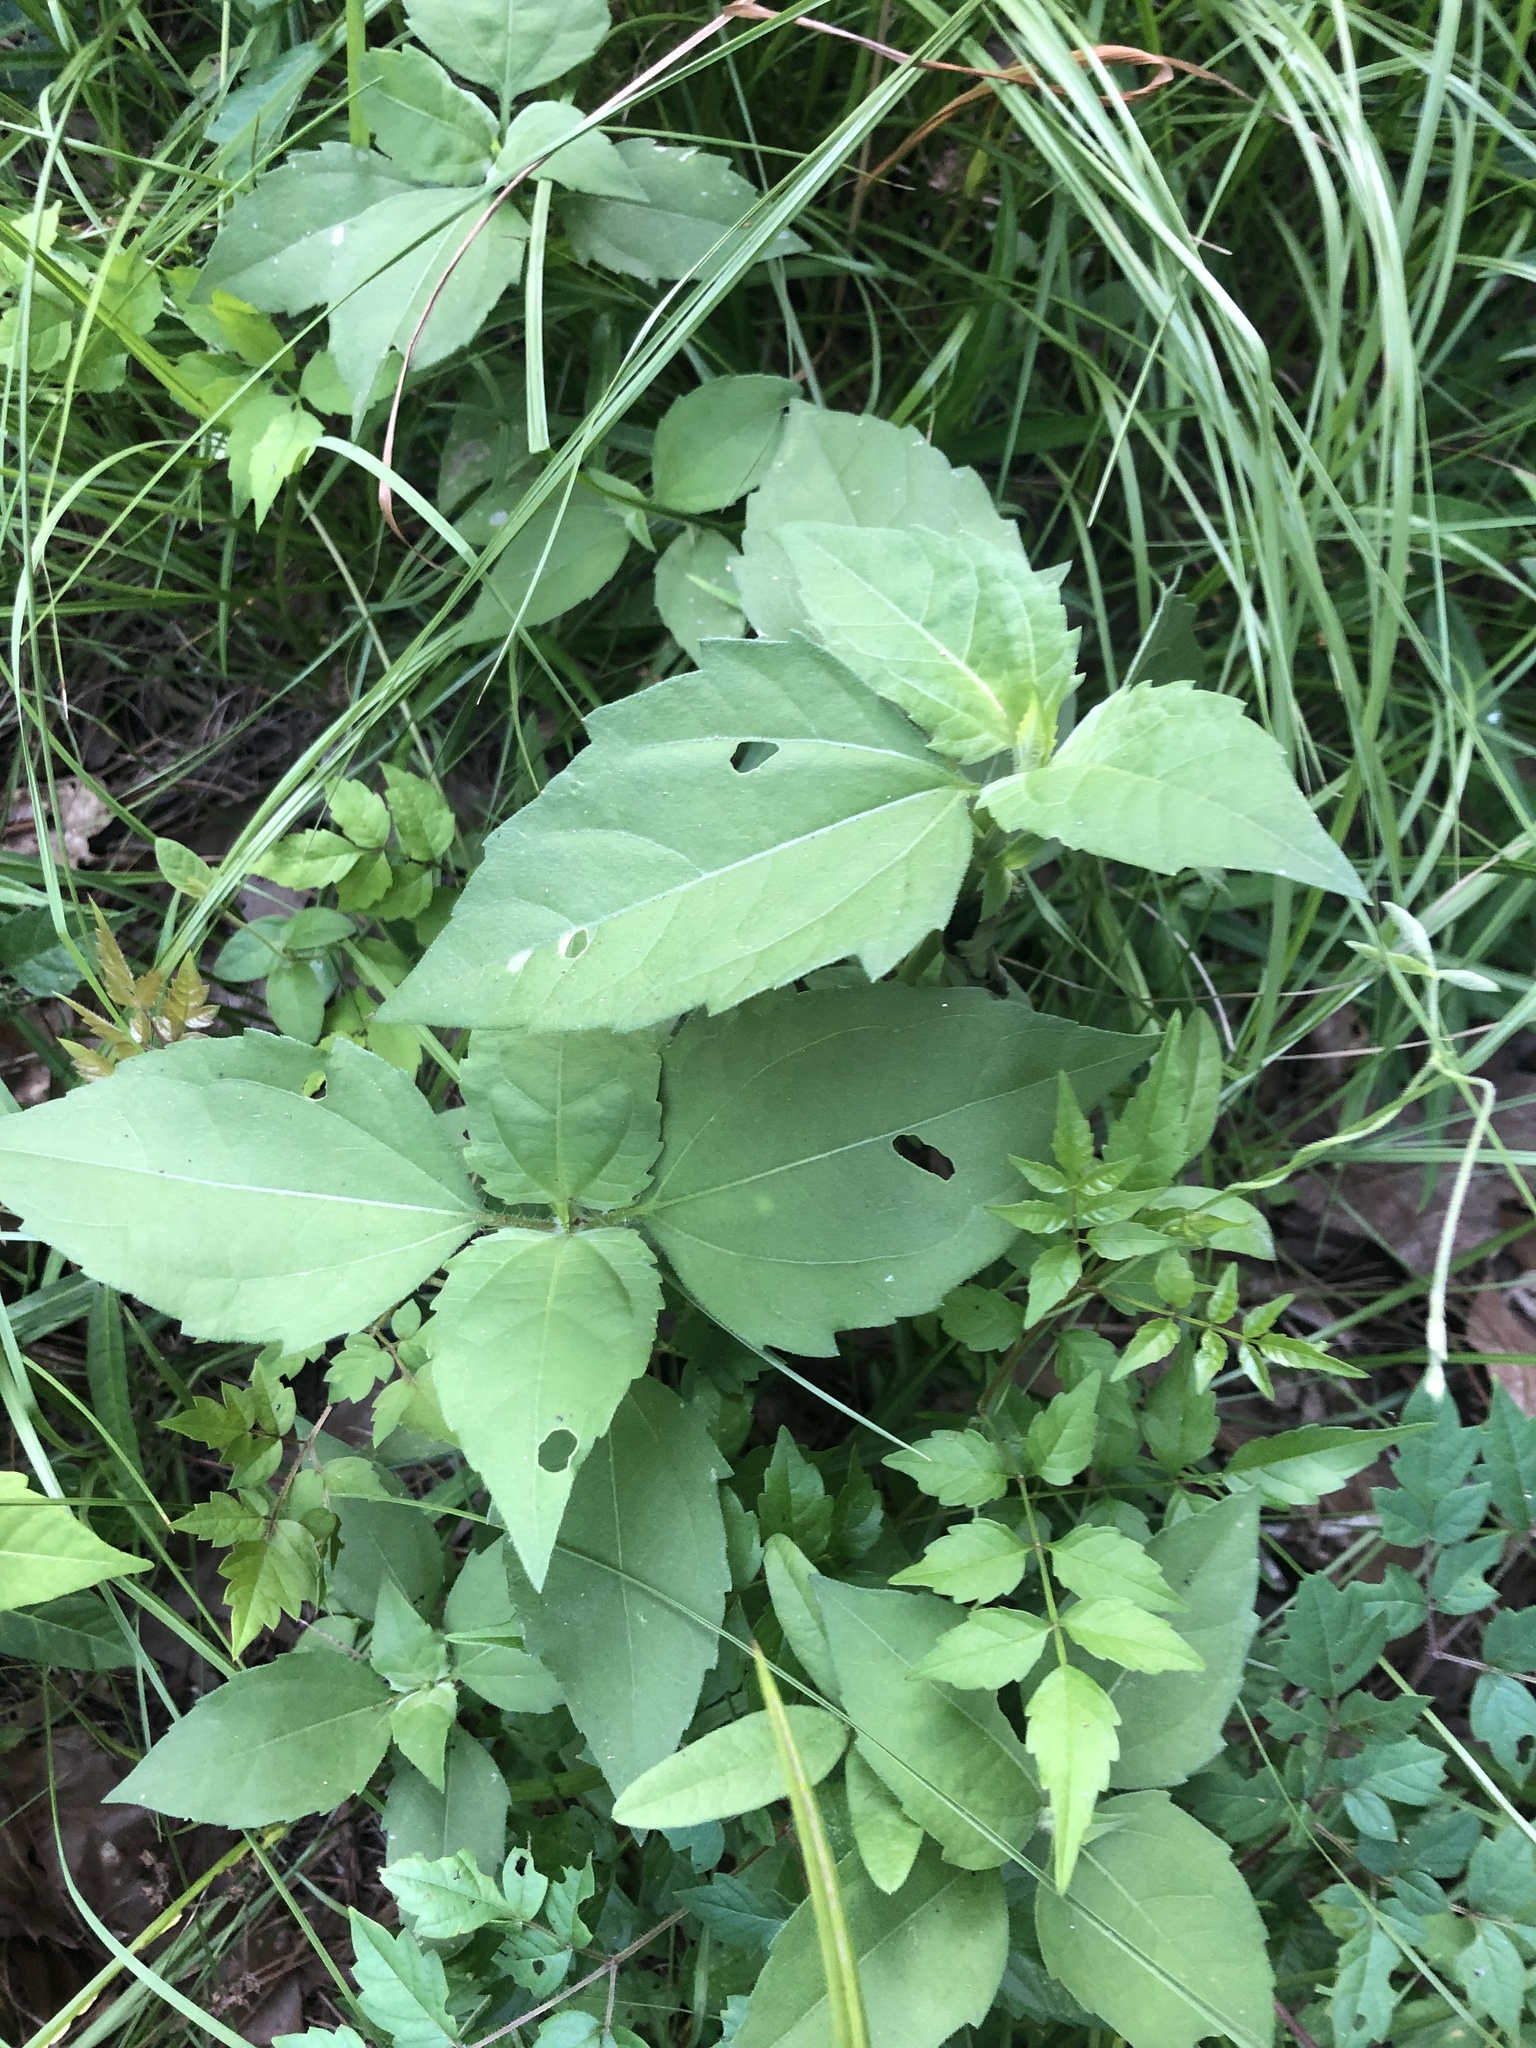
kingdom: Plantae
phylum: Tracheophyta
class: Magnoliopsida
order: Asterales
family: Asteraceae
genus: Iva
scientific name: Iva annua
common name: Marsh-elder
